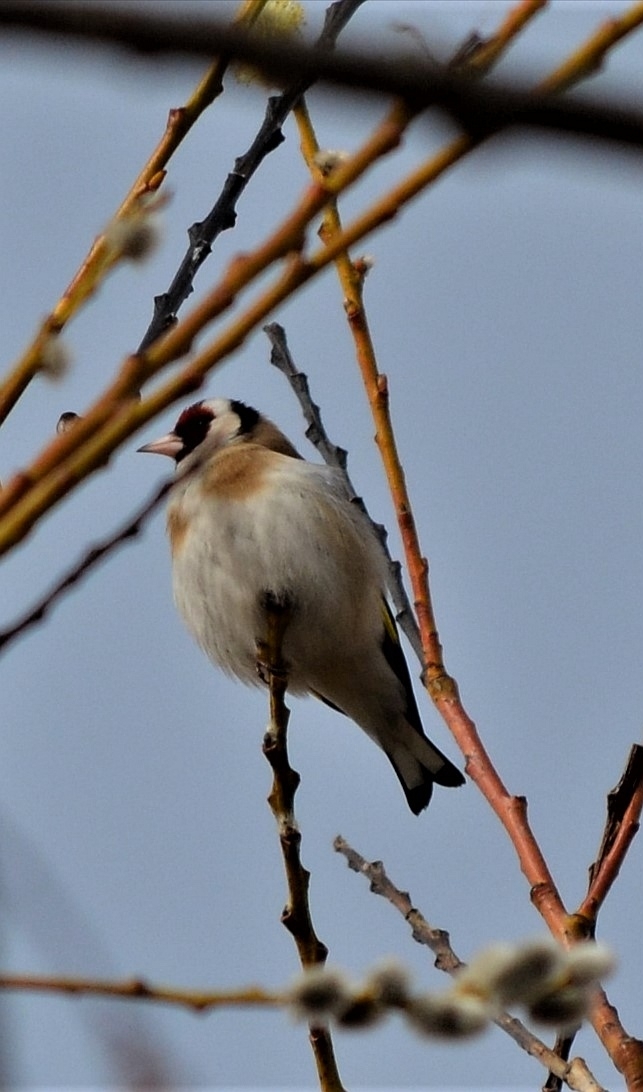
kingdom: Animalia
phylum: Chordata
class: Aves
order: Passeriformes
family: Fringillidae
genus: Carduelis
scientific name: Carduelis carduelis
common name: European goldfinch
